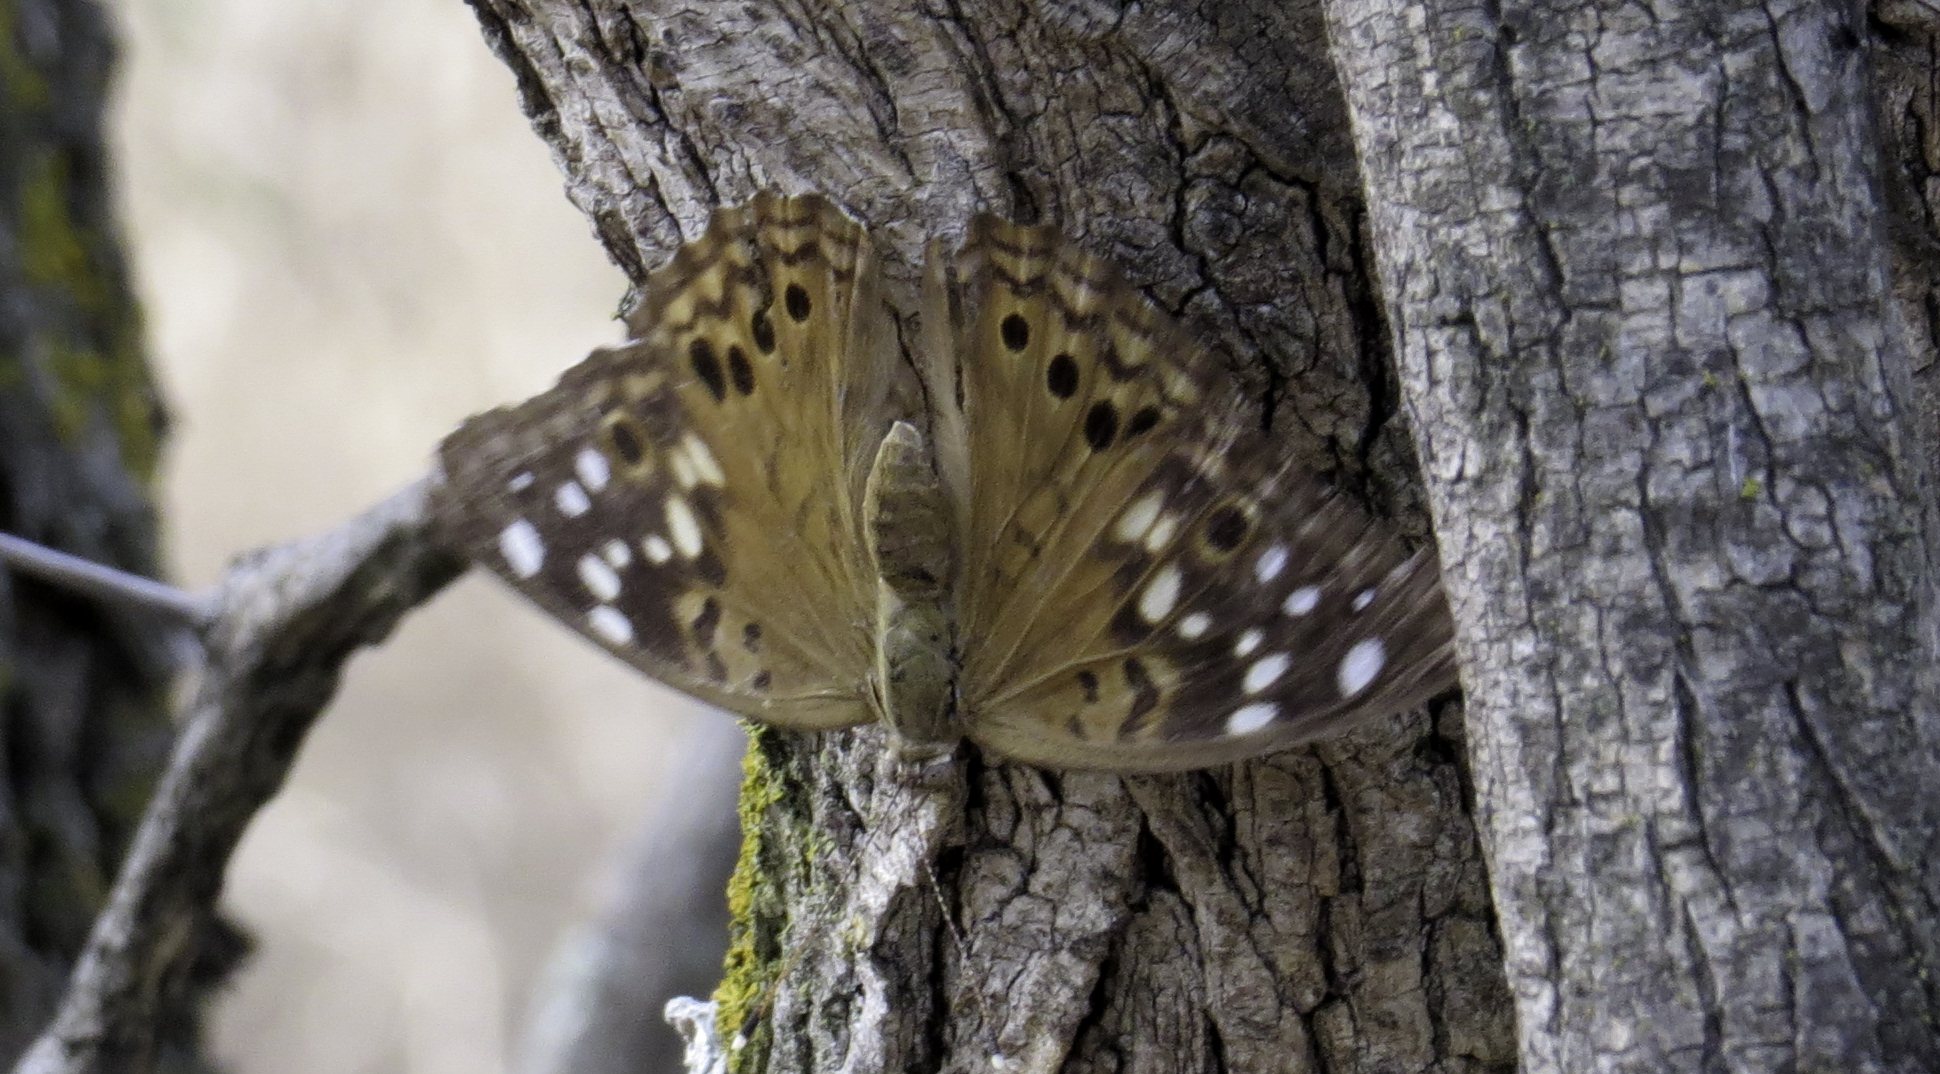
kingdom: Animalia
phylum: Arthropoda
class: Insecta
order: Lepidoptera
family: Nymphalidae
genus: Asterocampa
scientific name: Asterocampa celtis
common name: Hackberry emperor
